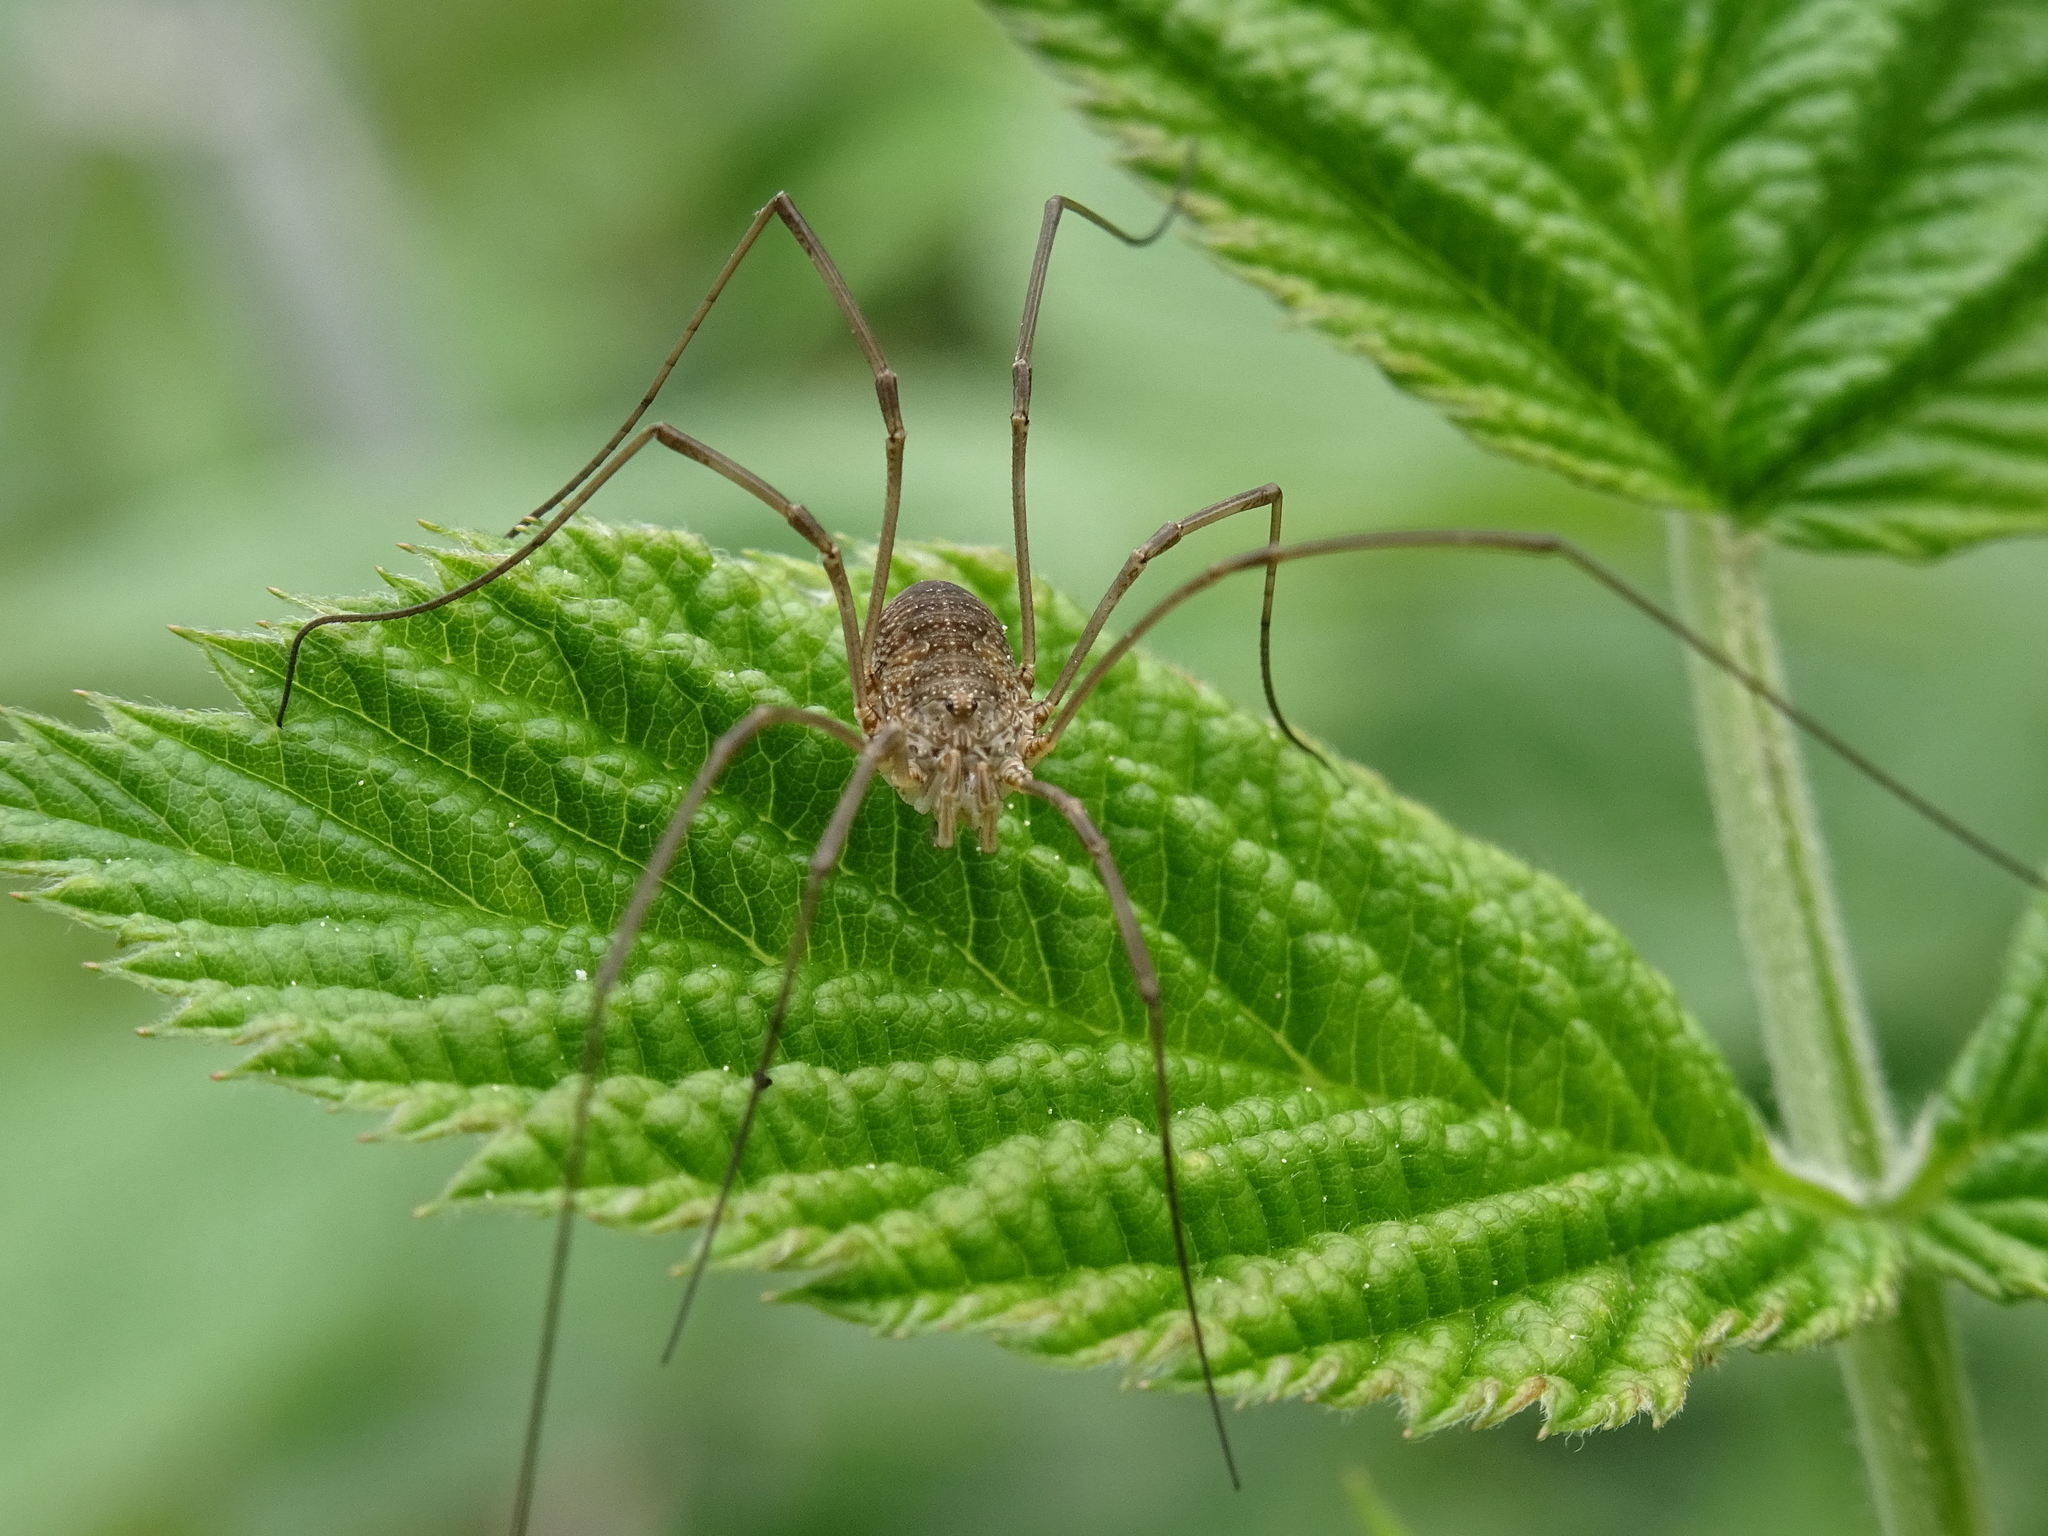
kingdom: Animalia
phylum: Arthropoda
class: Arachnida
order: Opiliones
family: Phalangiidae
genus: Phalangium
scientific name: Phalangium opilio
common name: Daddy longleg
